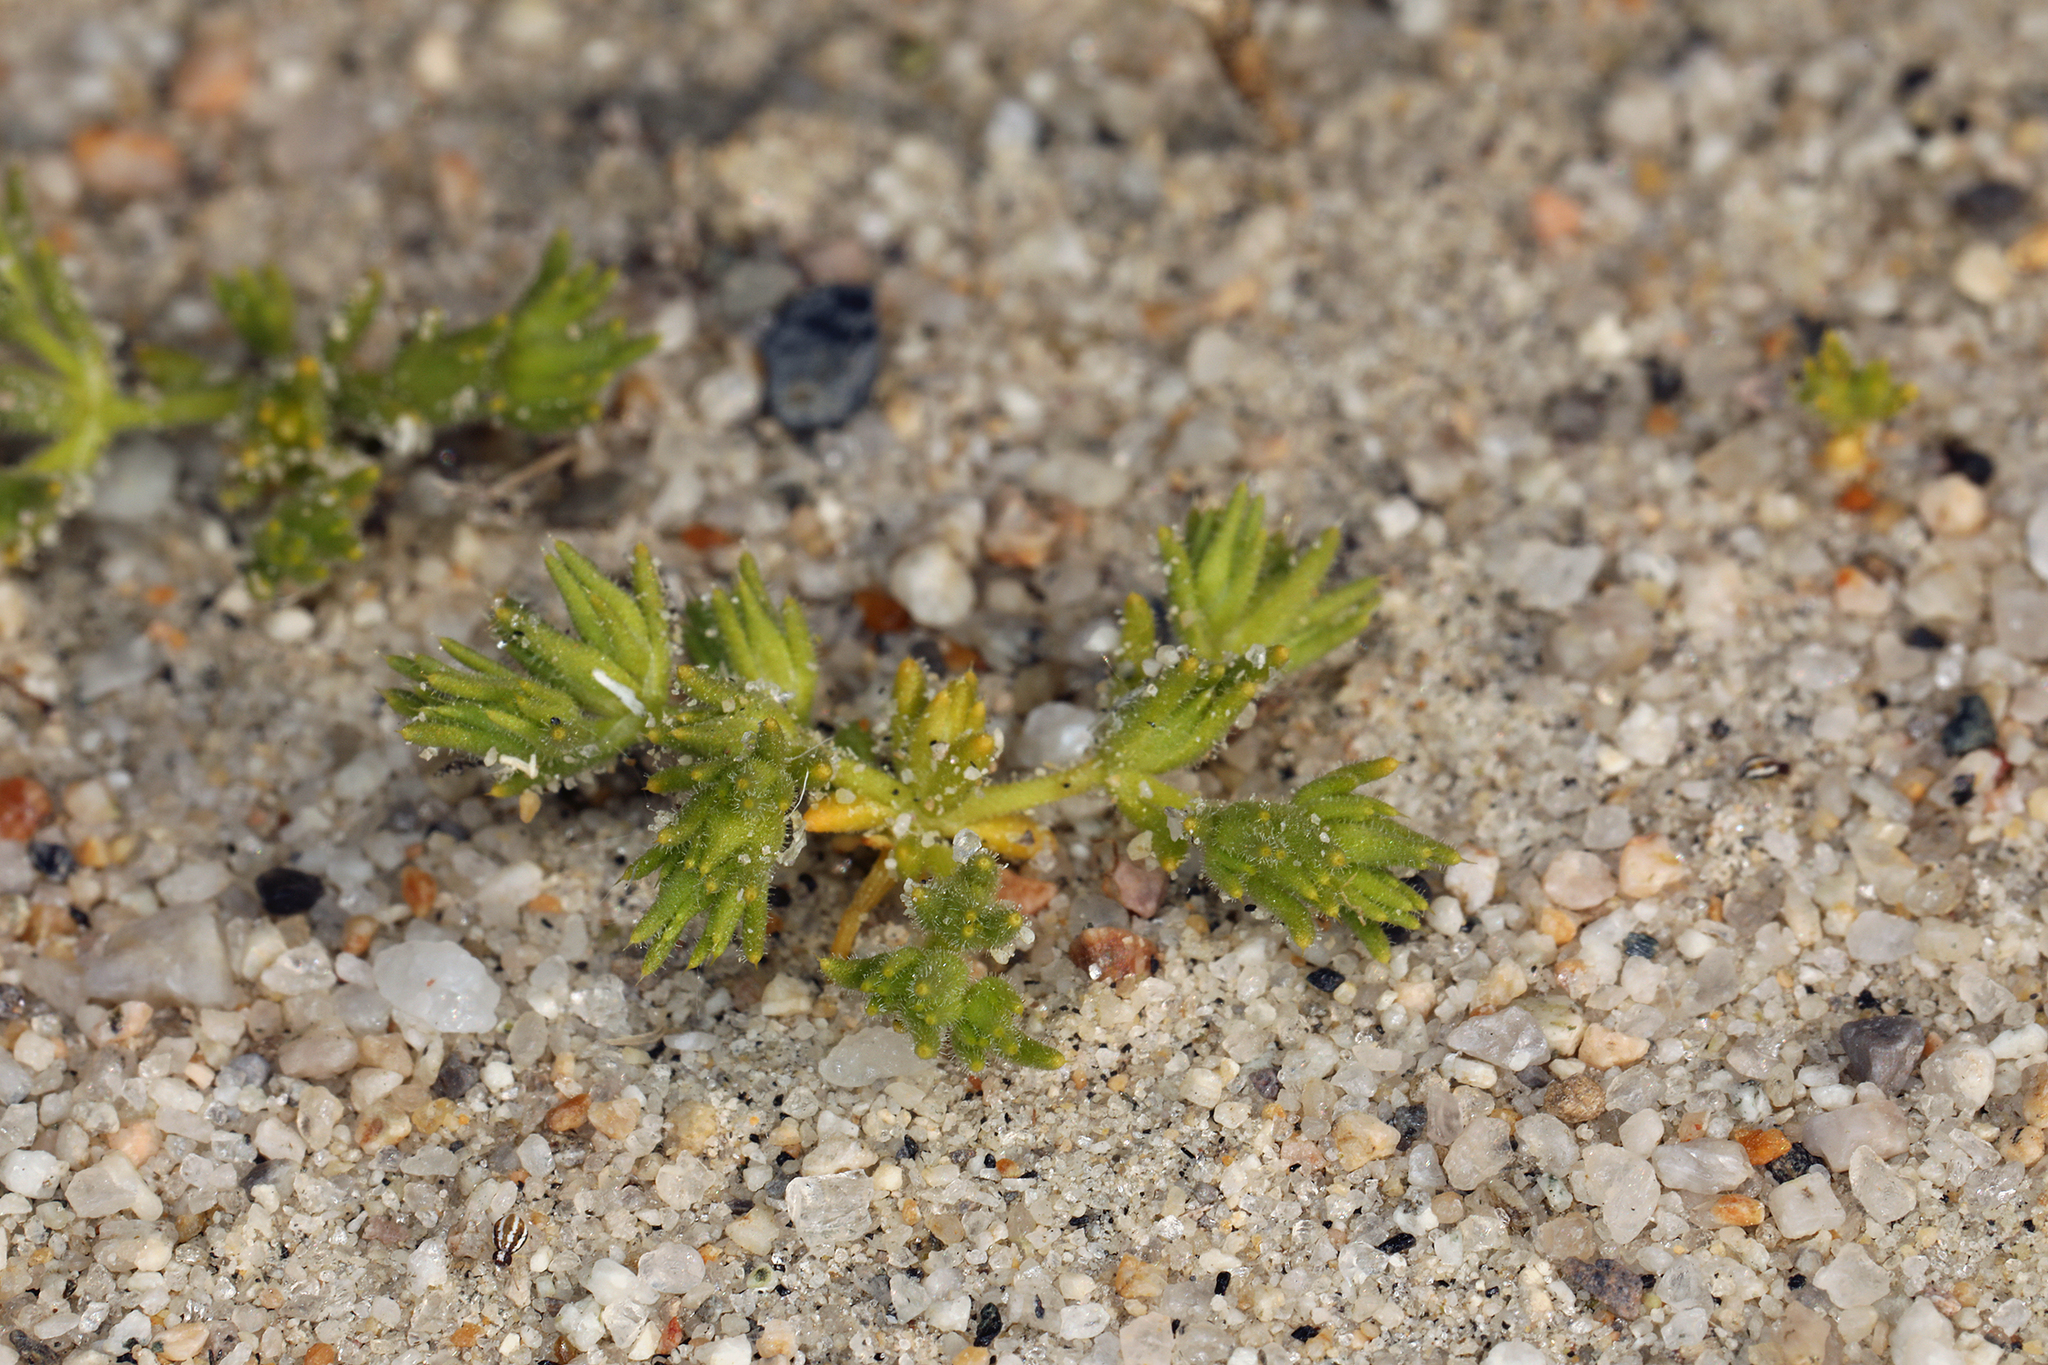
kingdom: Plantae
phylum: Tracheophyta
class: Magnoliopsida
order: Caryophyllales
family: Caryophyllaceae
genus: Loeflingia
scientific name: Loeflingia squarrosa
